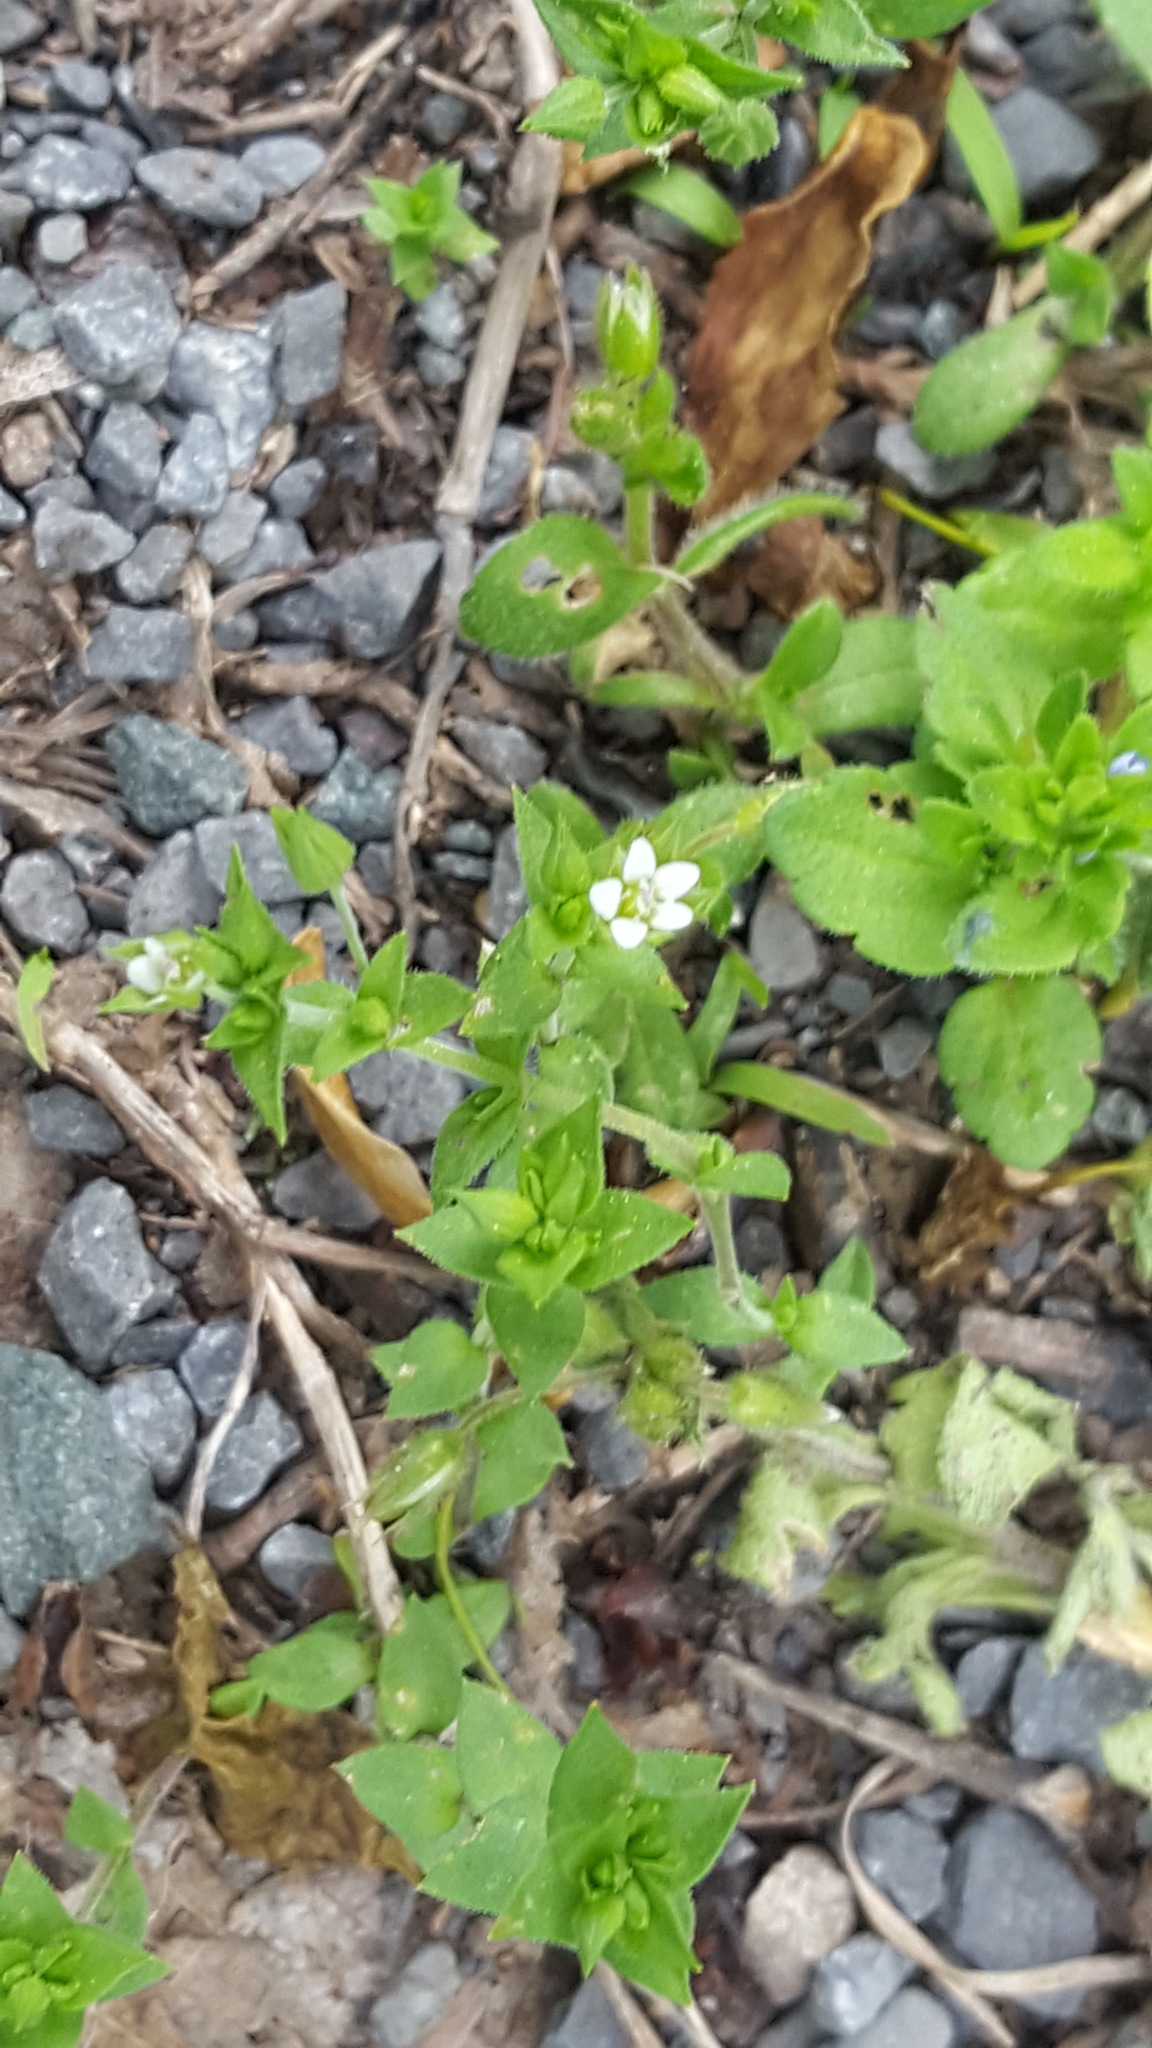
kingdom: Plantae
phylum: Tracheophyta
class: Magnoliopsida
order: Caryophyllales
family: Caryophyllaceae
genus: Arenaria
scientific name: Arenaria serpyllifolia
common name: Thyme-leaved sandwort
